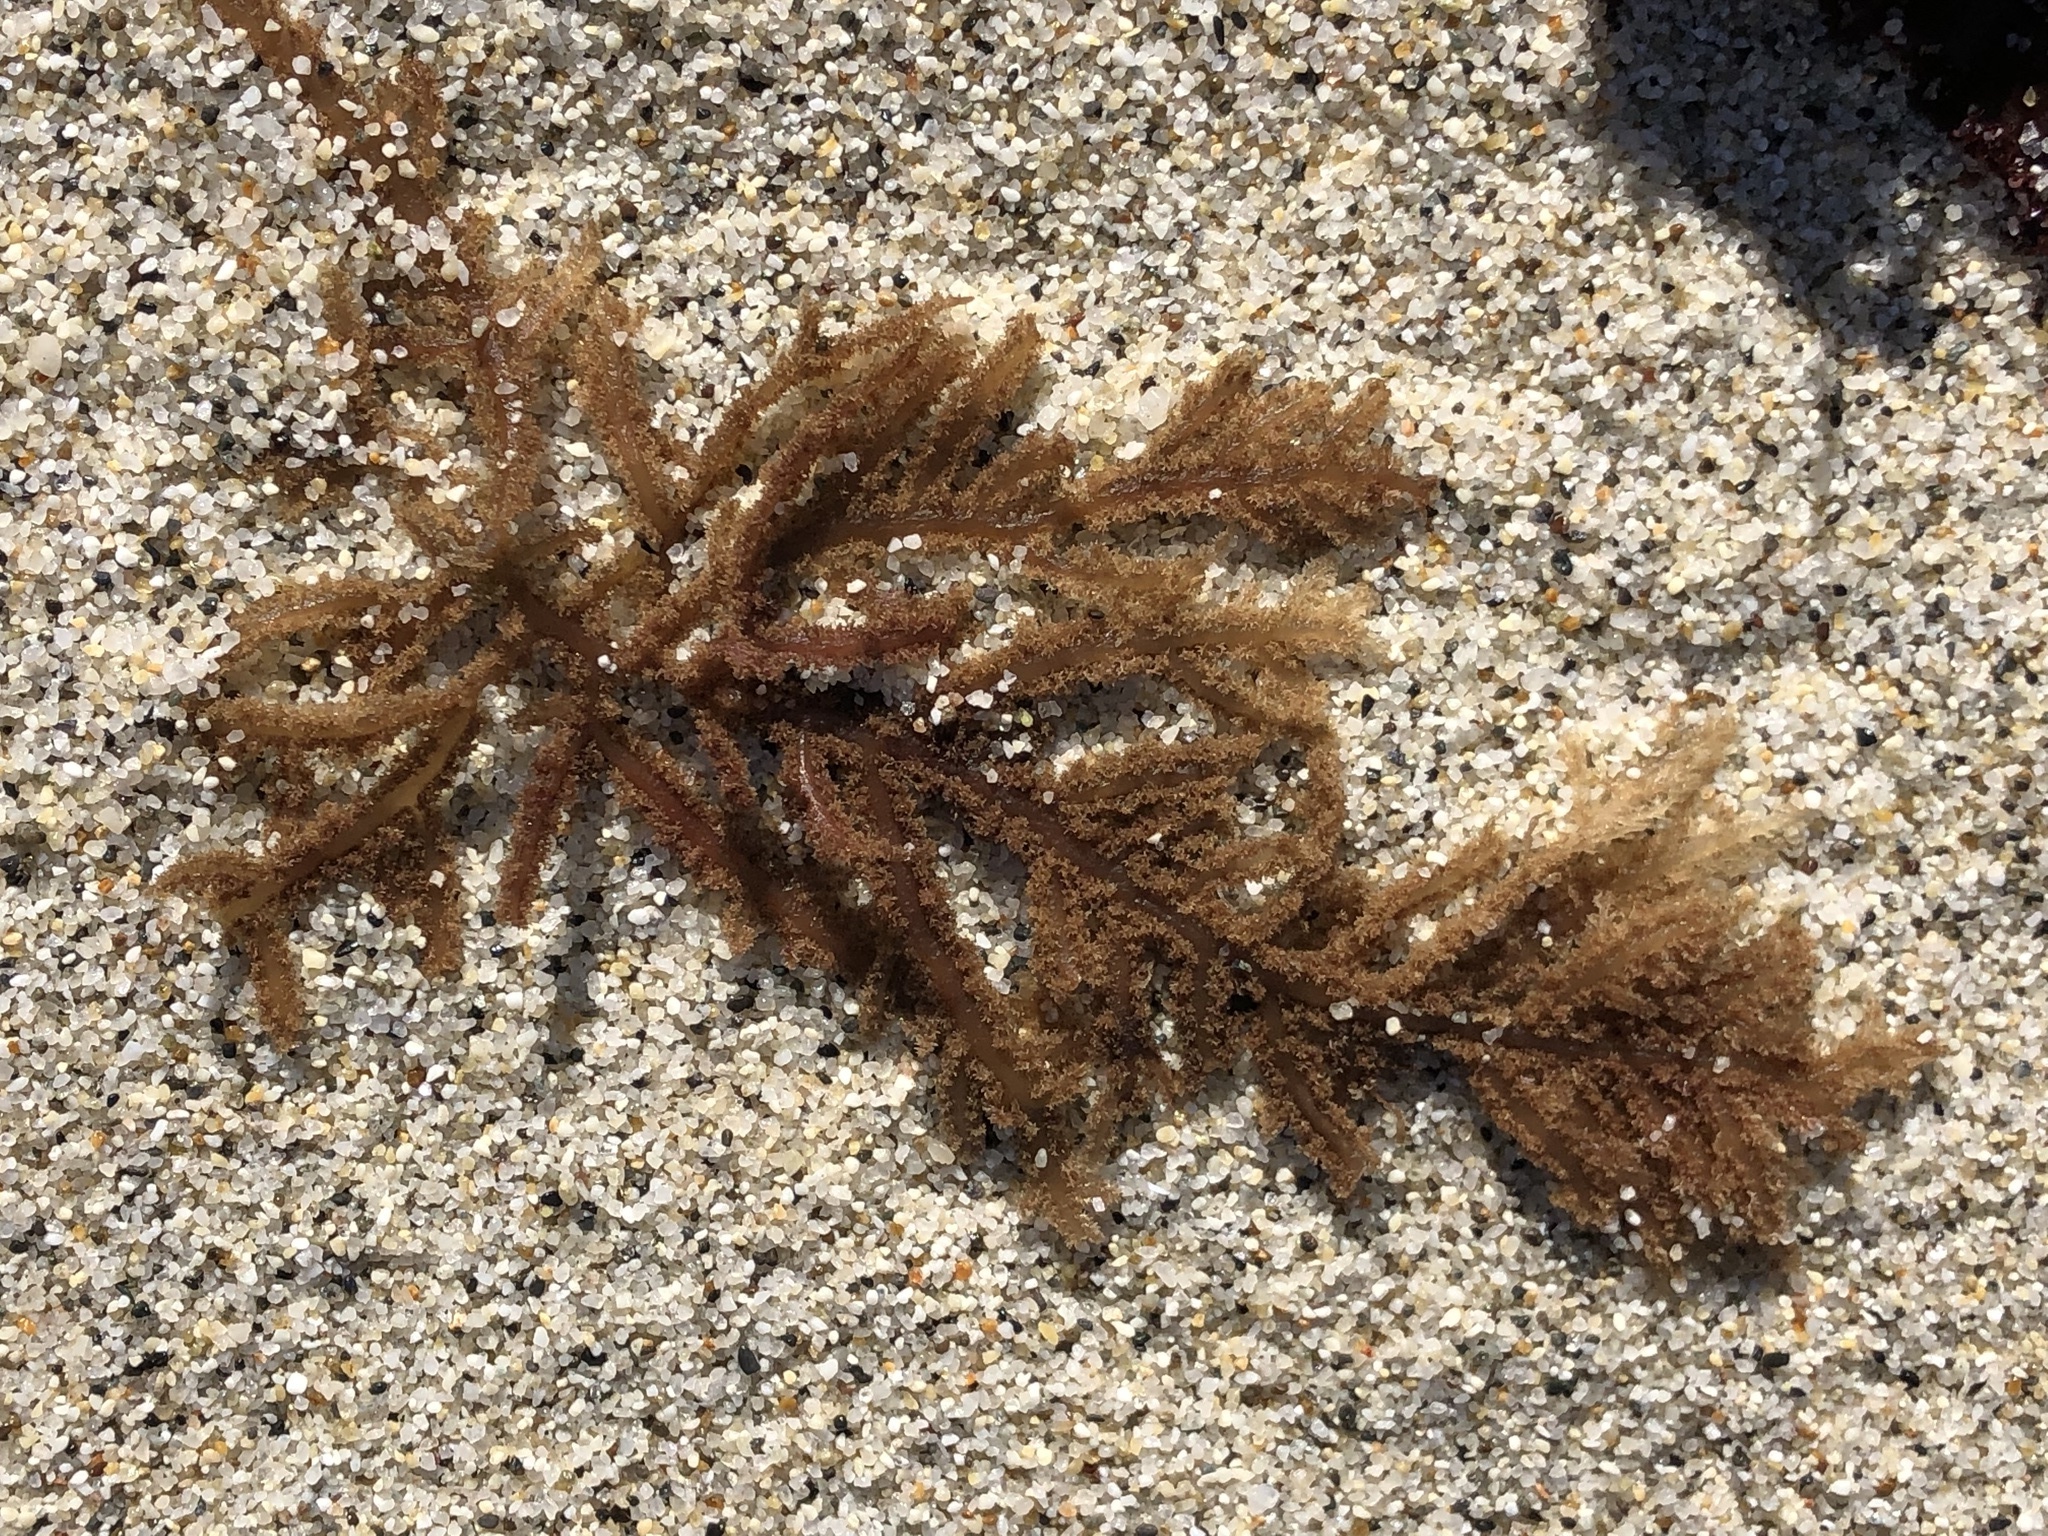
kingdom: Plantae
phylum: Rhodophyta
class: Florideophyceae
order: Ceramiales
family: Wrangeliaceae
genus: Neoptilota
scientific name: Neoptilota densa
